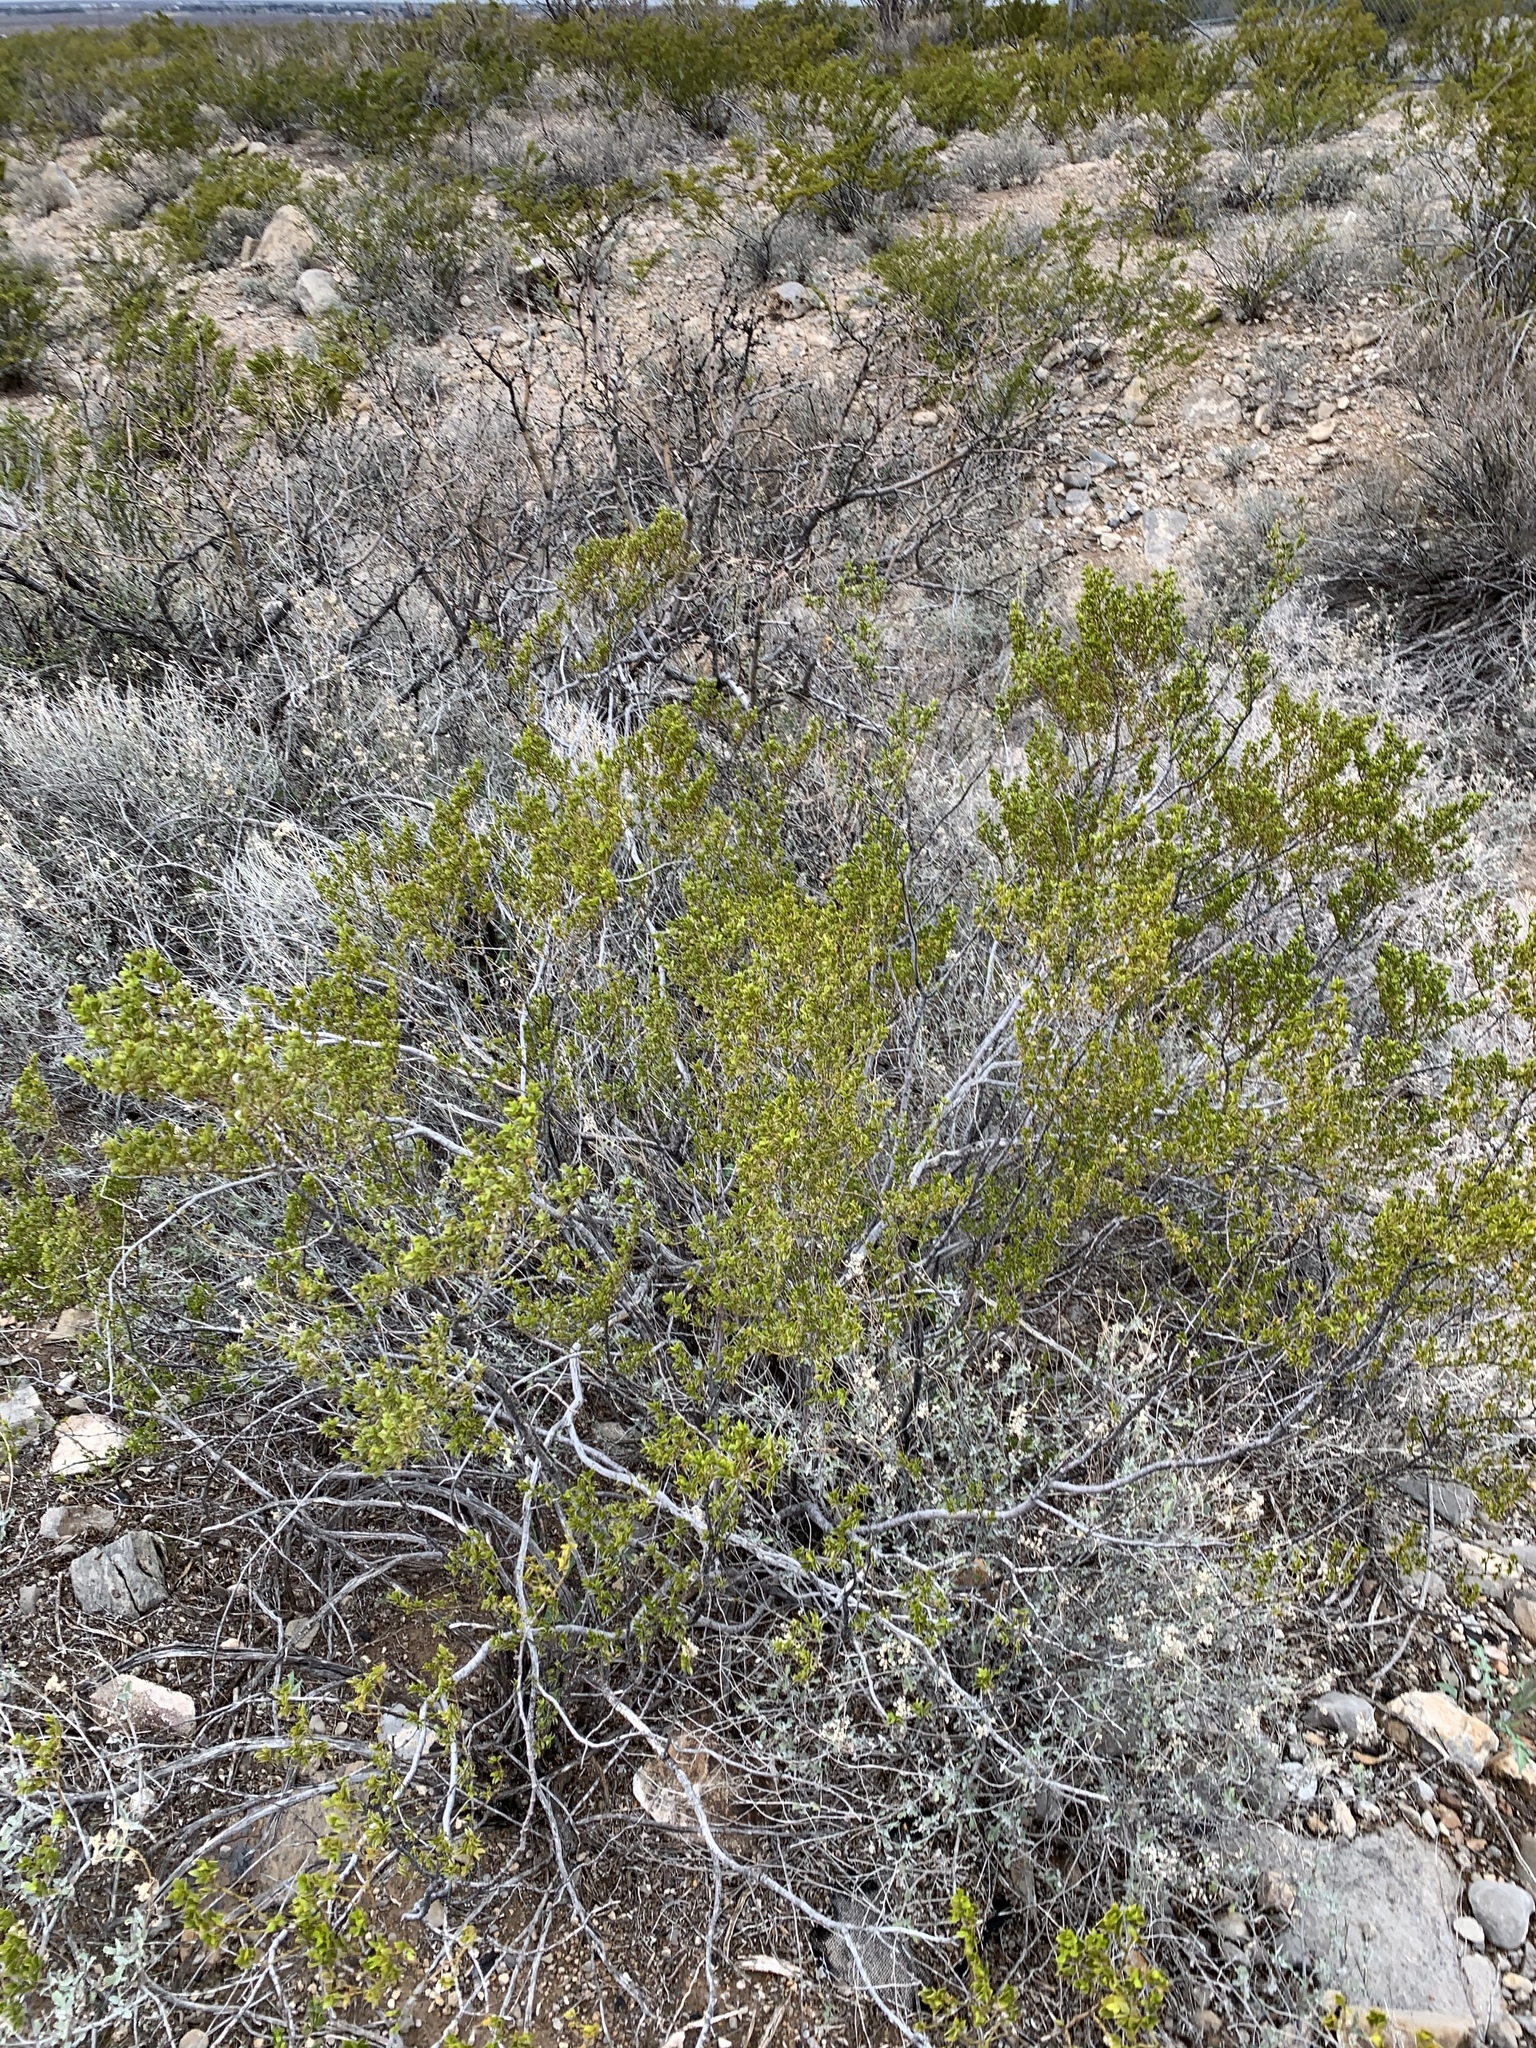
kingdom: Plantae
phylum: Tracheophyta
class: Magnoliopsida
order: Zygophyllales
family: Zygophyllaceae
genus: Larrea
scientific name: Larrea tridentata
